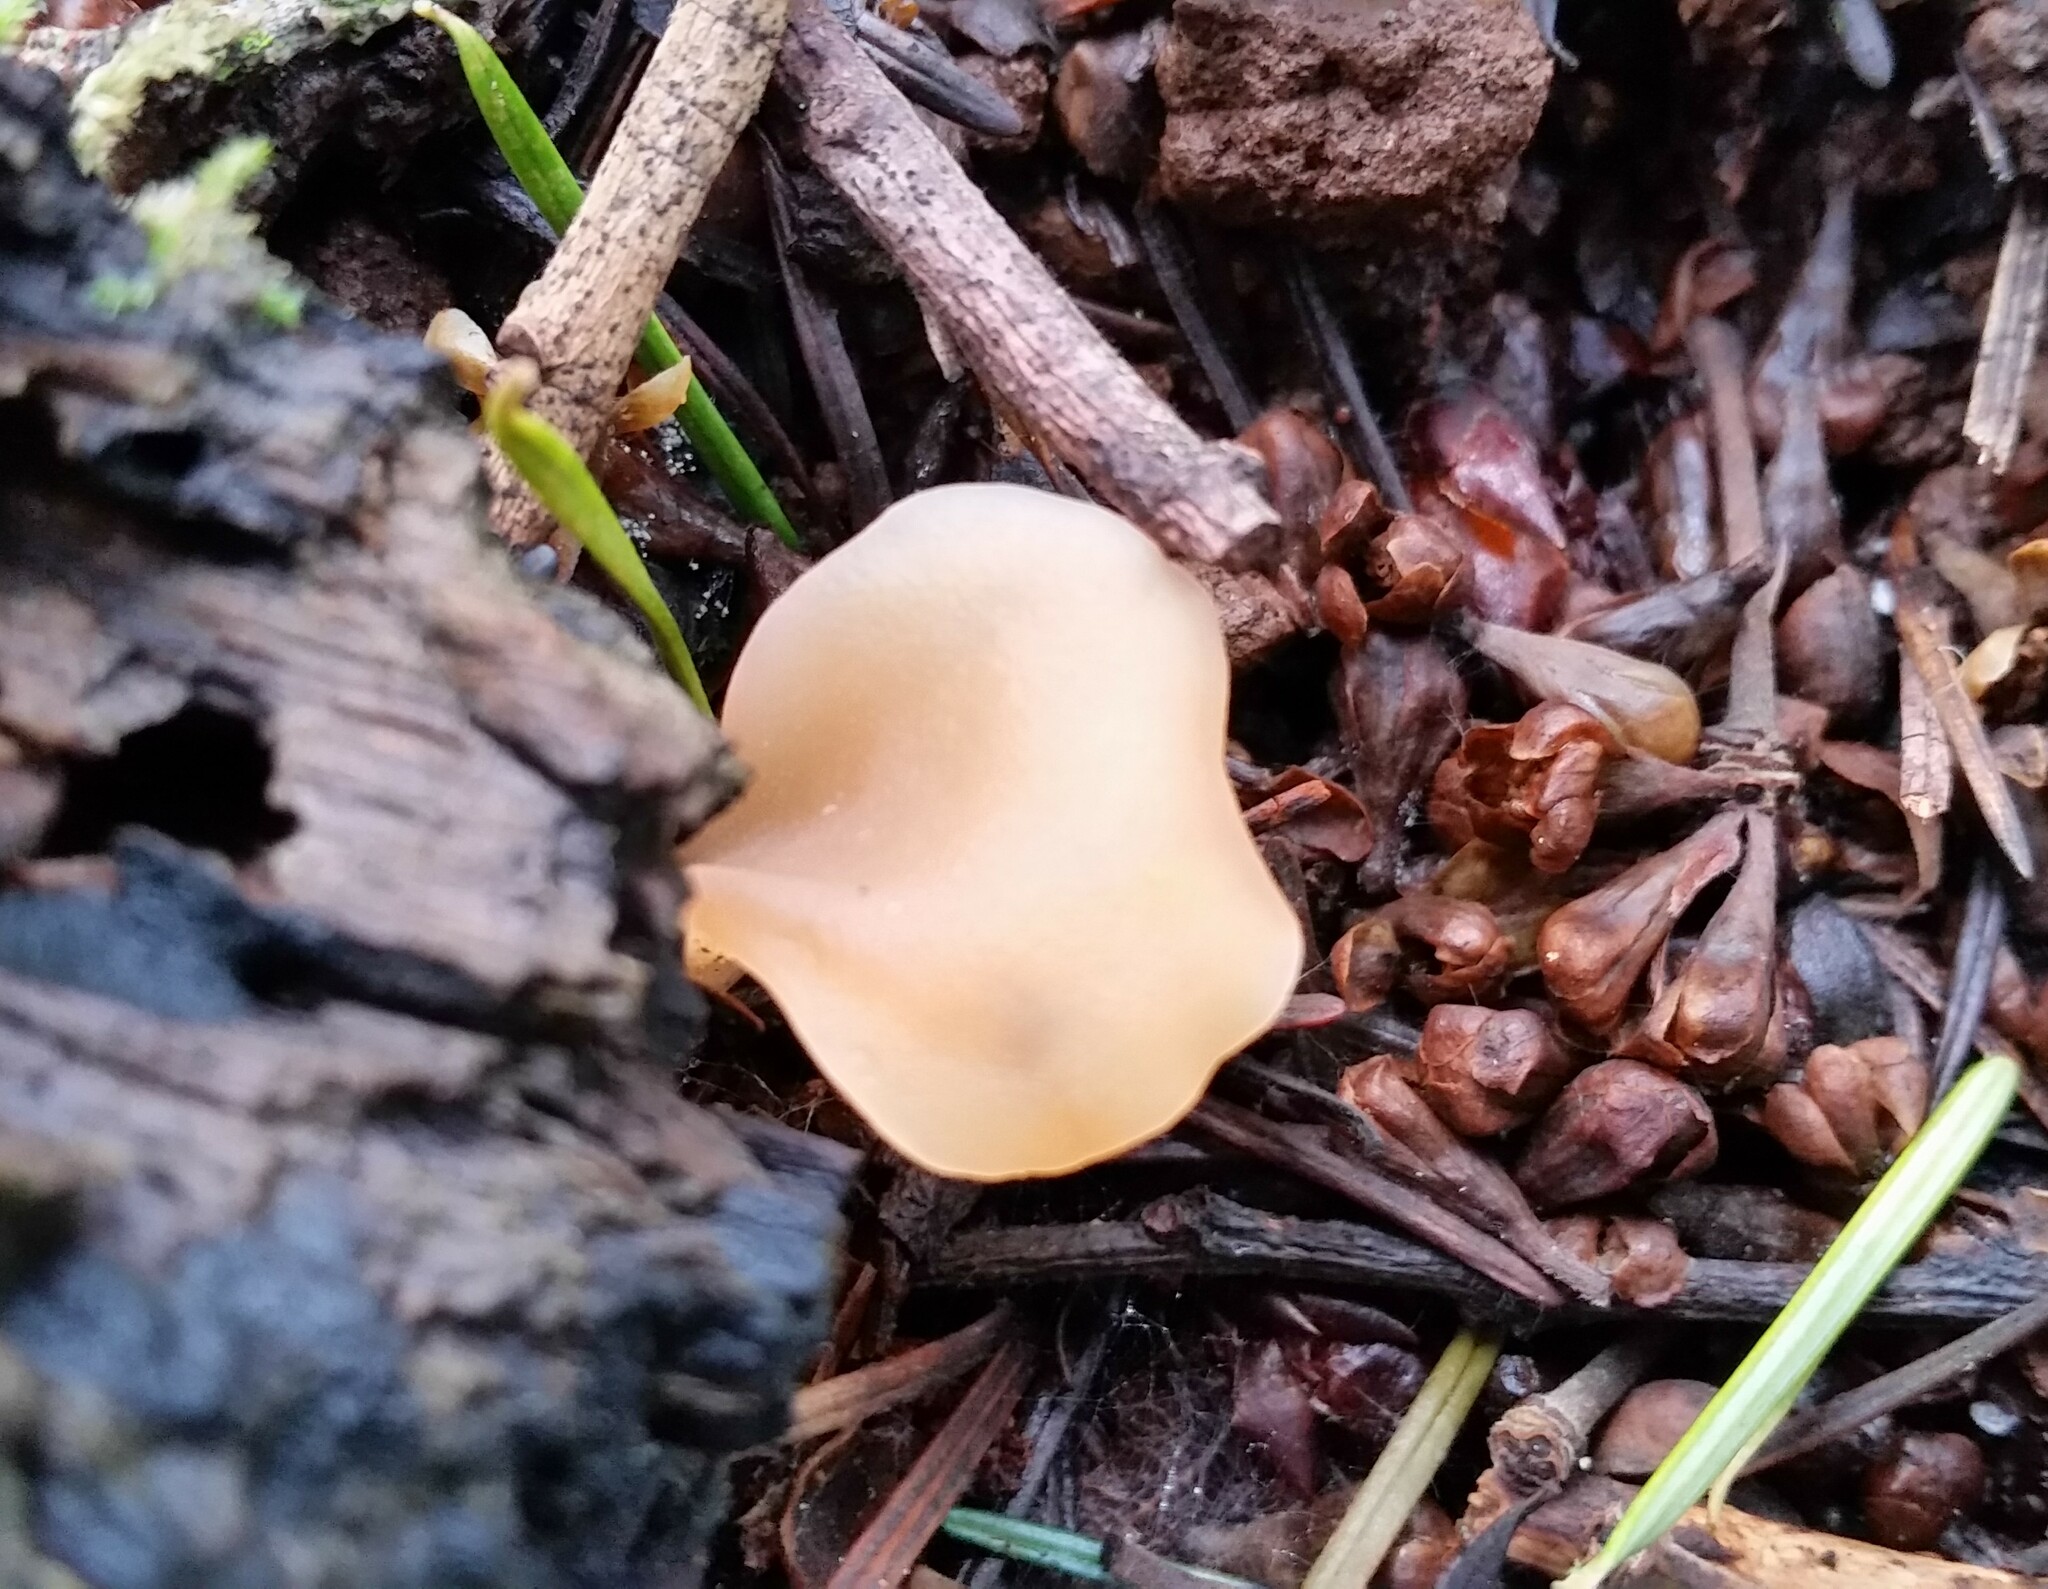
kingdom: Fungi
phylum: Basidiomycota
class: Agaricomycetes
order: Auriculariales
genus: Guepinia
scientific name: Guepinia helvelloides
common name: Salmon salad
